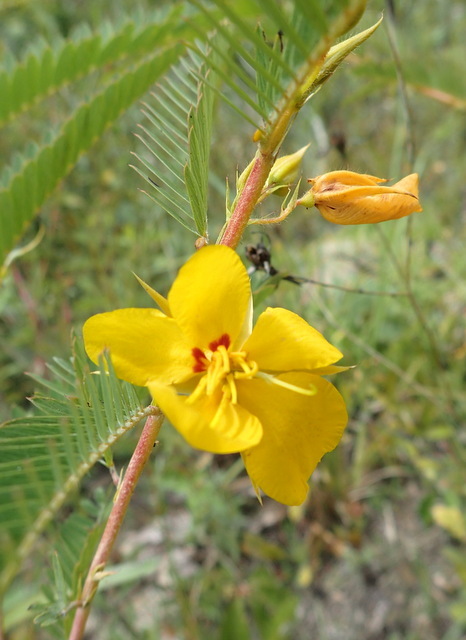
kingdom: Plantae
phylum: Tracheophyta
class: Magnoliopsida
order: Fabales
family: Fabaceae
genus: Chamaecrista
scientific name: Chamaecrista fasciculata
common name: Golden cassia
